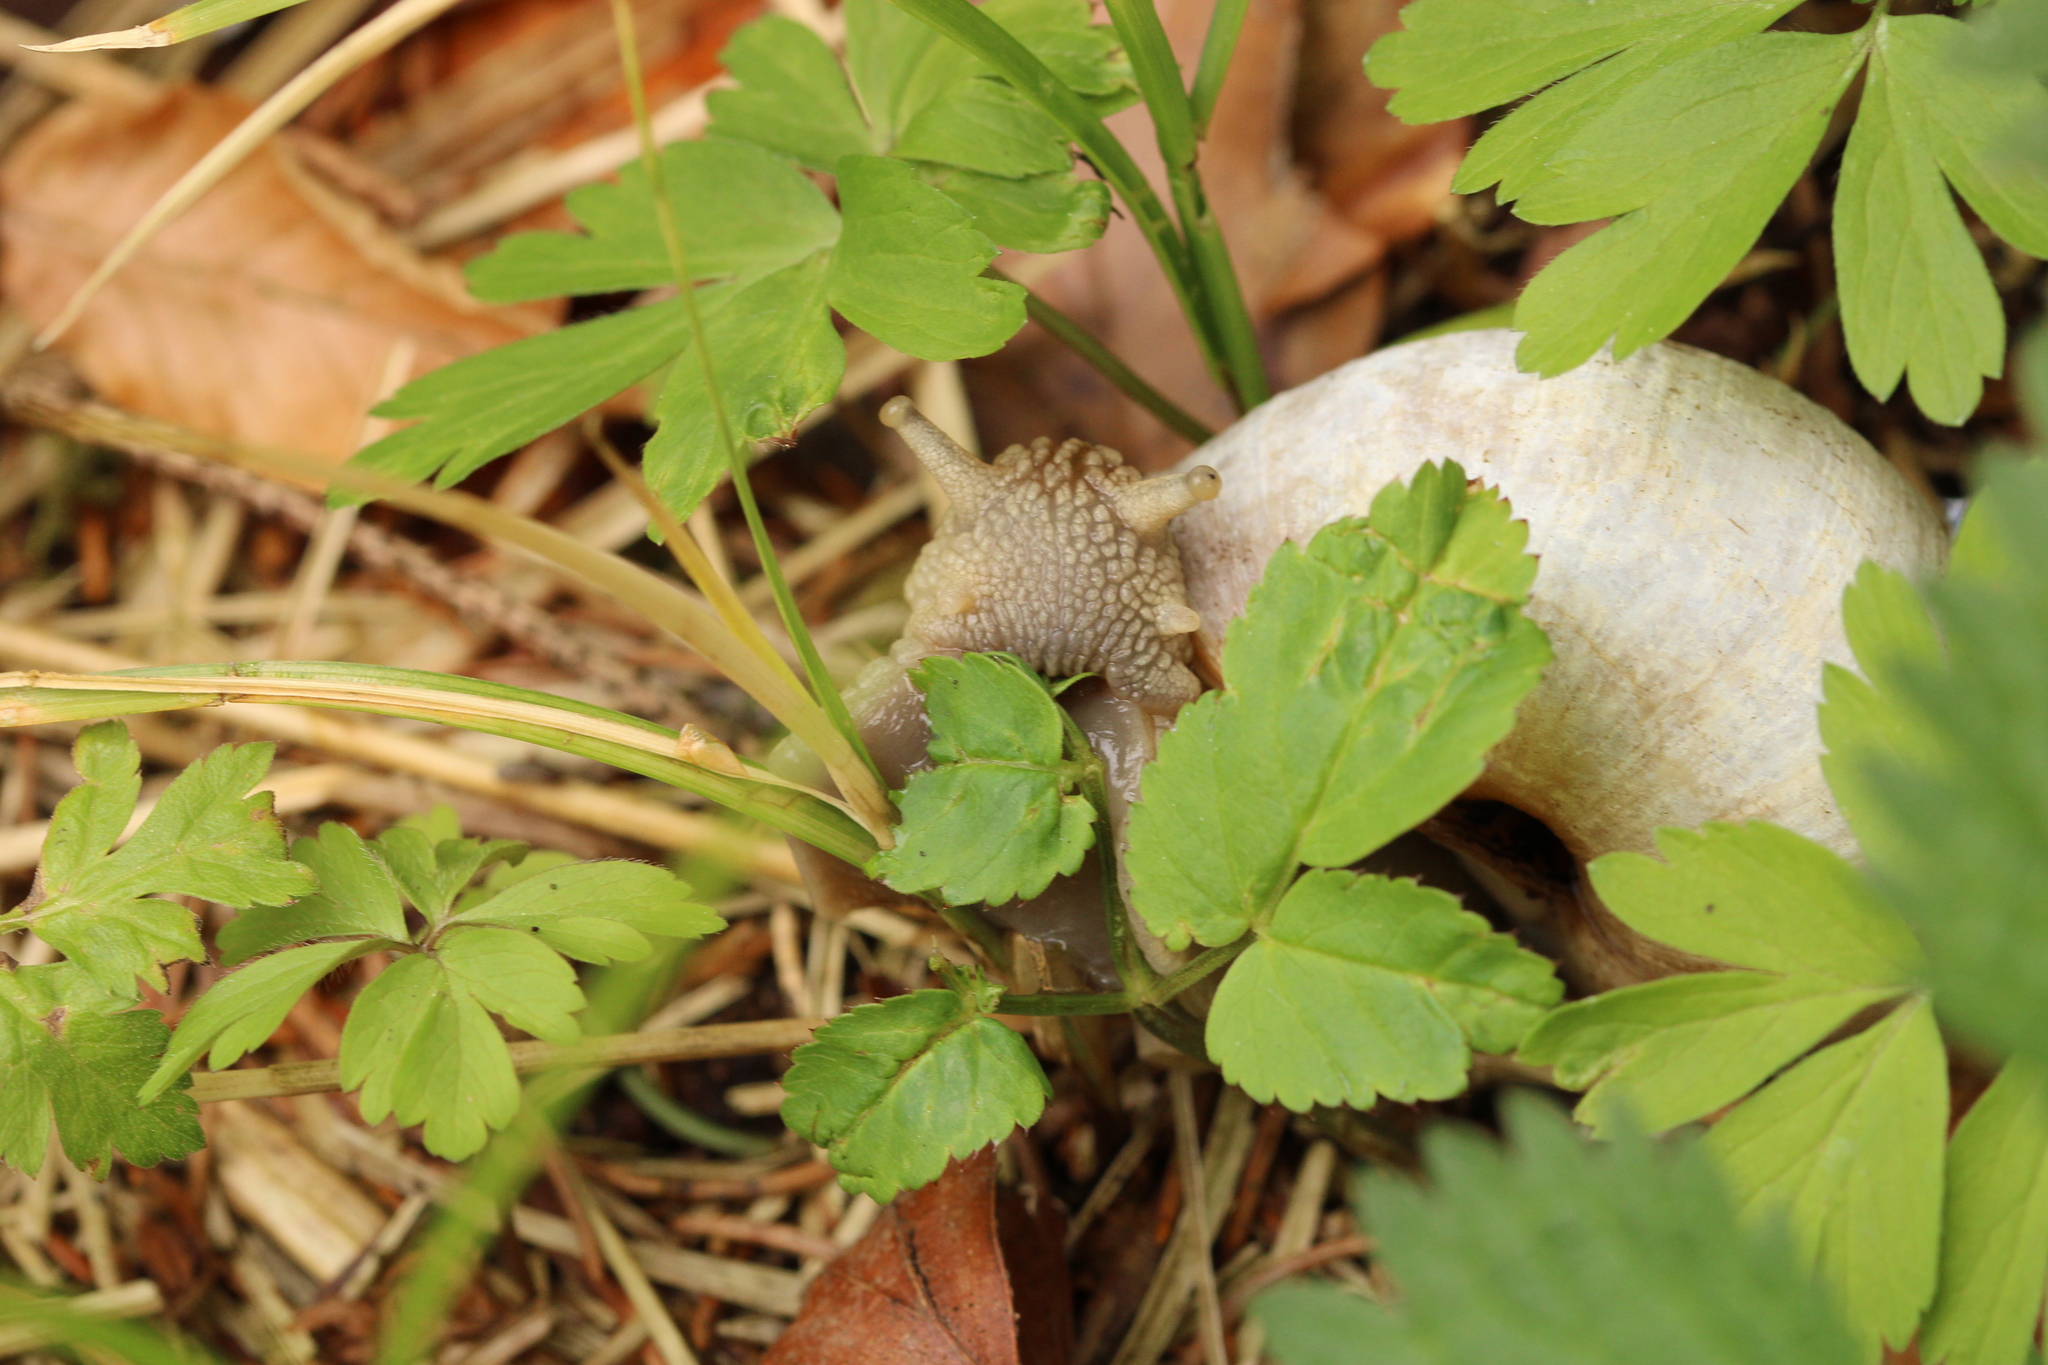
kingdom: Animalia
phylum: Mollusca
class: Gastropoda
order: Stylommatophora
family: Helicidae
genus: Helix
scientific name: Helix pomatia
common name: Roman snail
